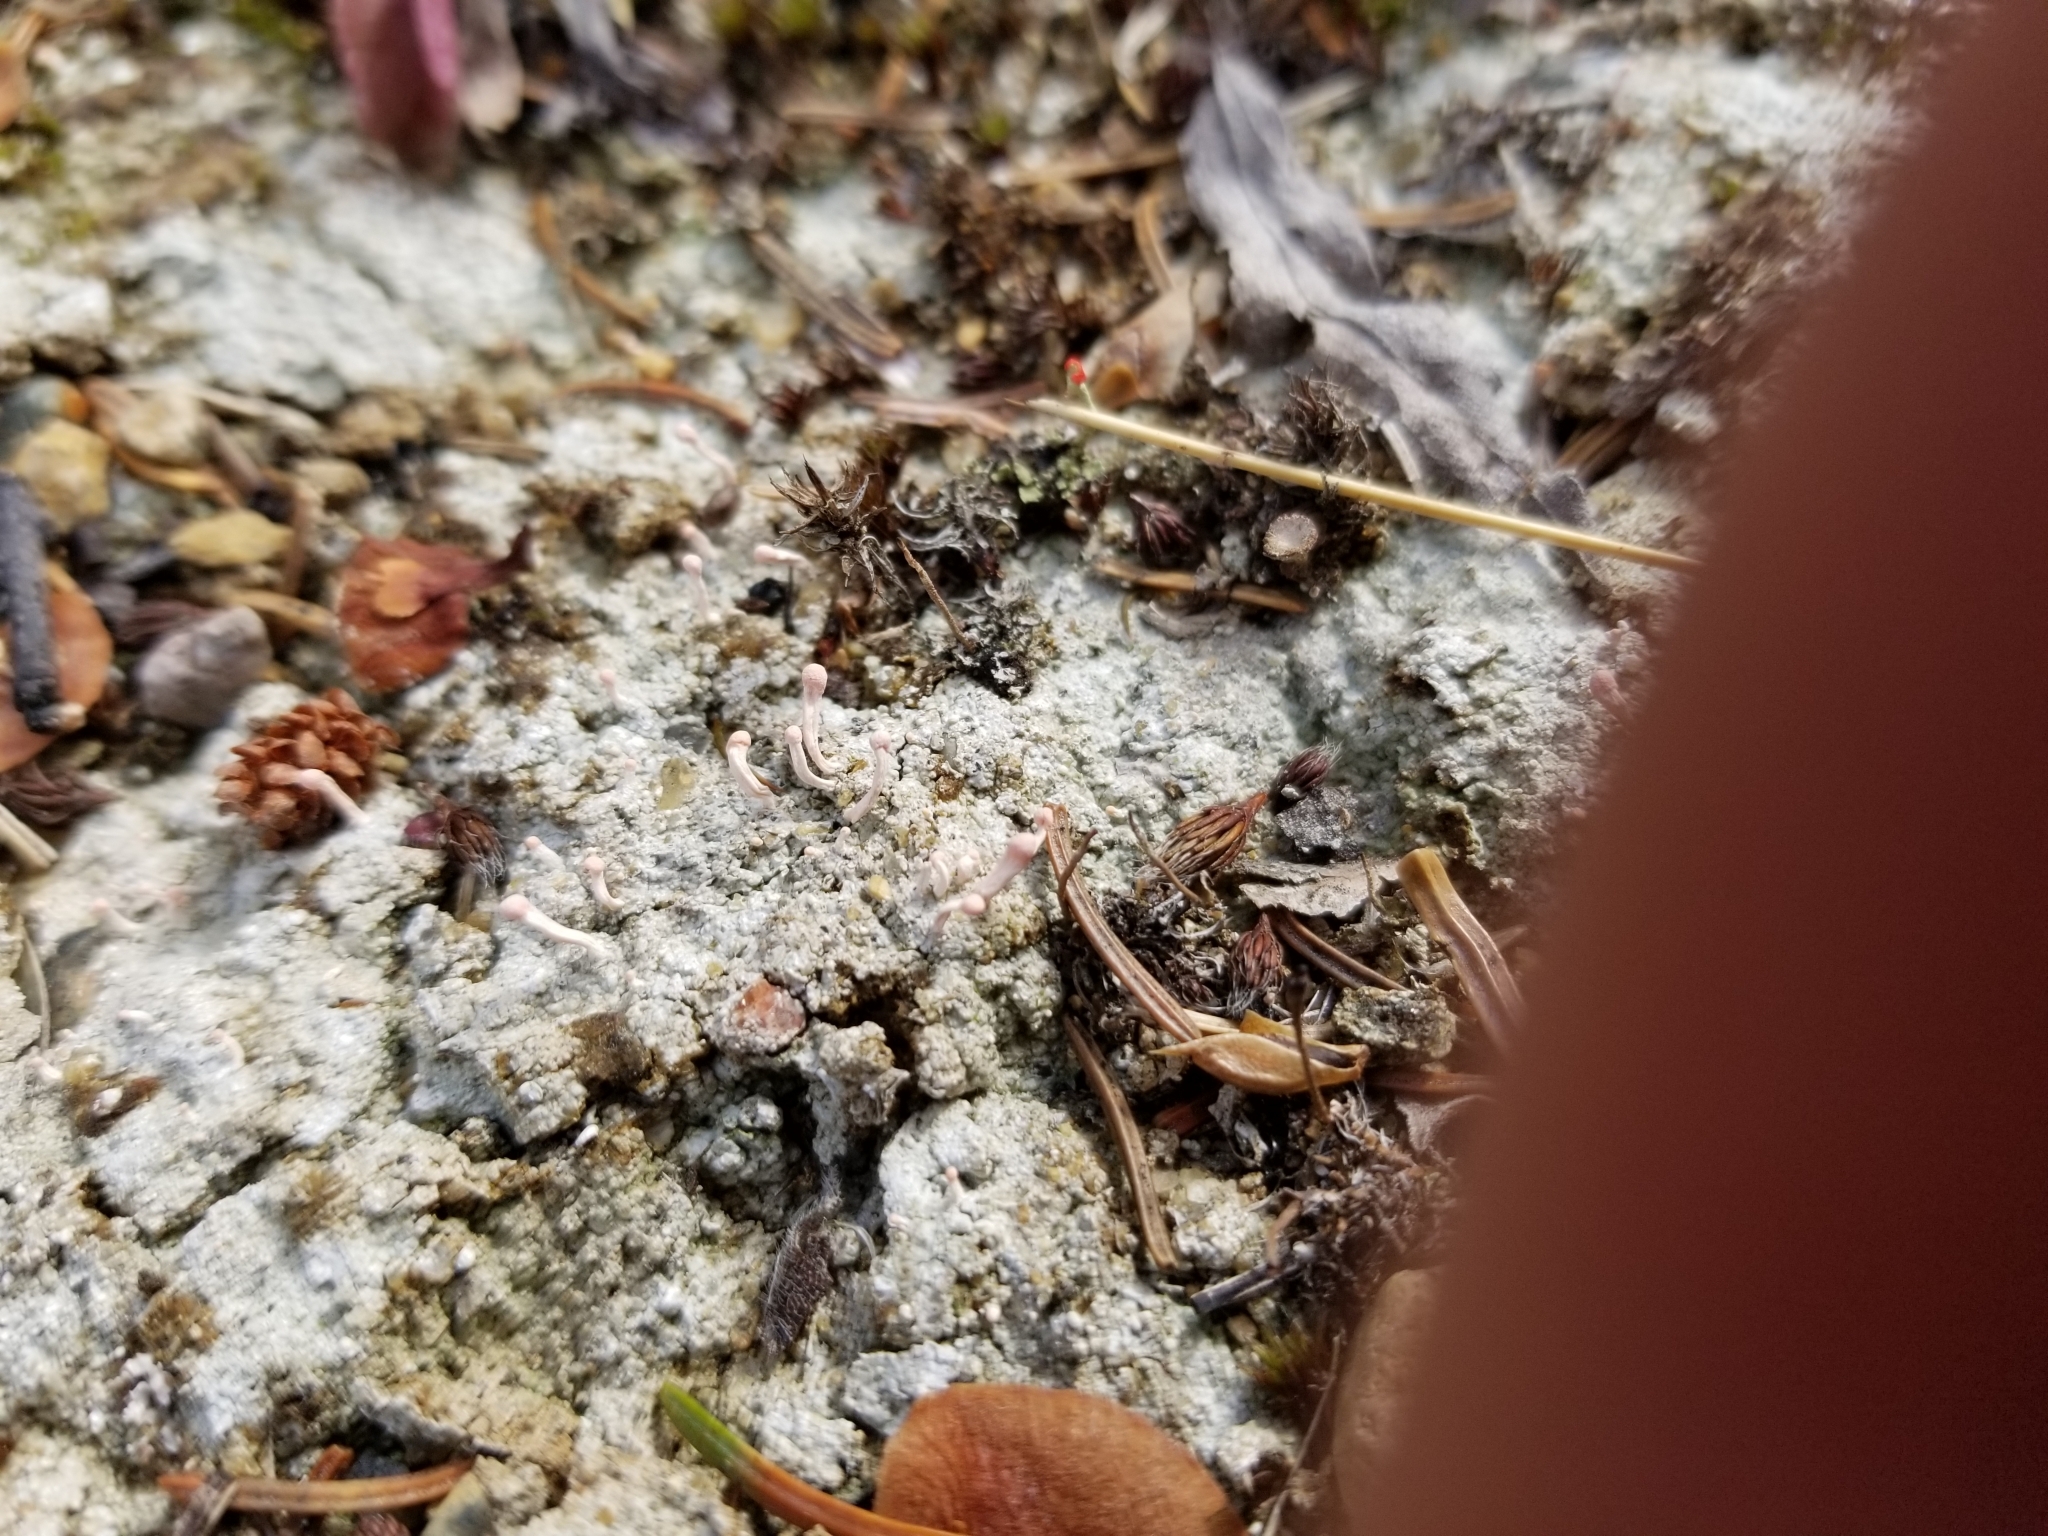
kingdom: Fungi
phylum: Ascomycota
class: Lecanoromycetes
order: Pertusariales
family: Icmadophilaceae
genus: Dibaeis
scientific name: Dibaeis baeomyces
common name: Pink earth lichen
